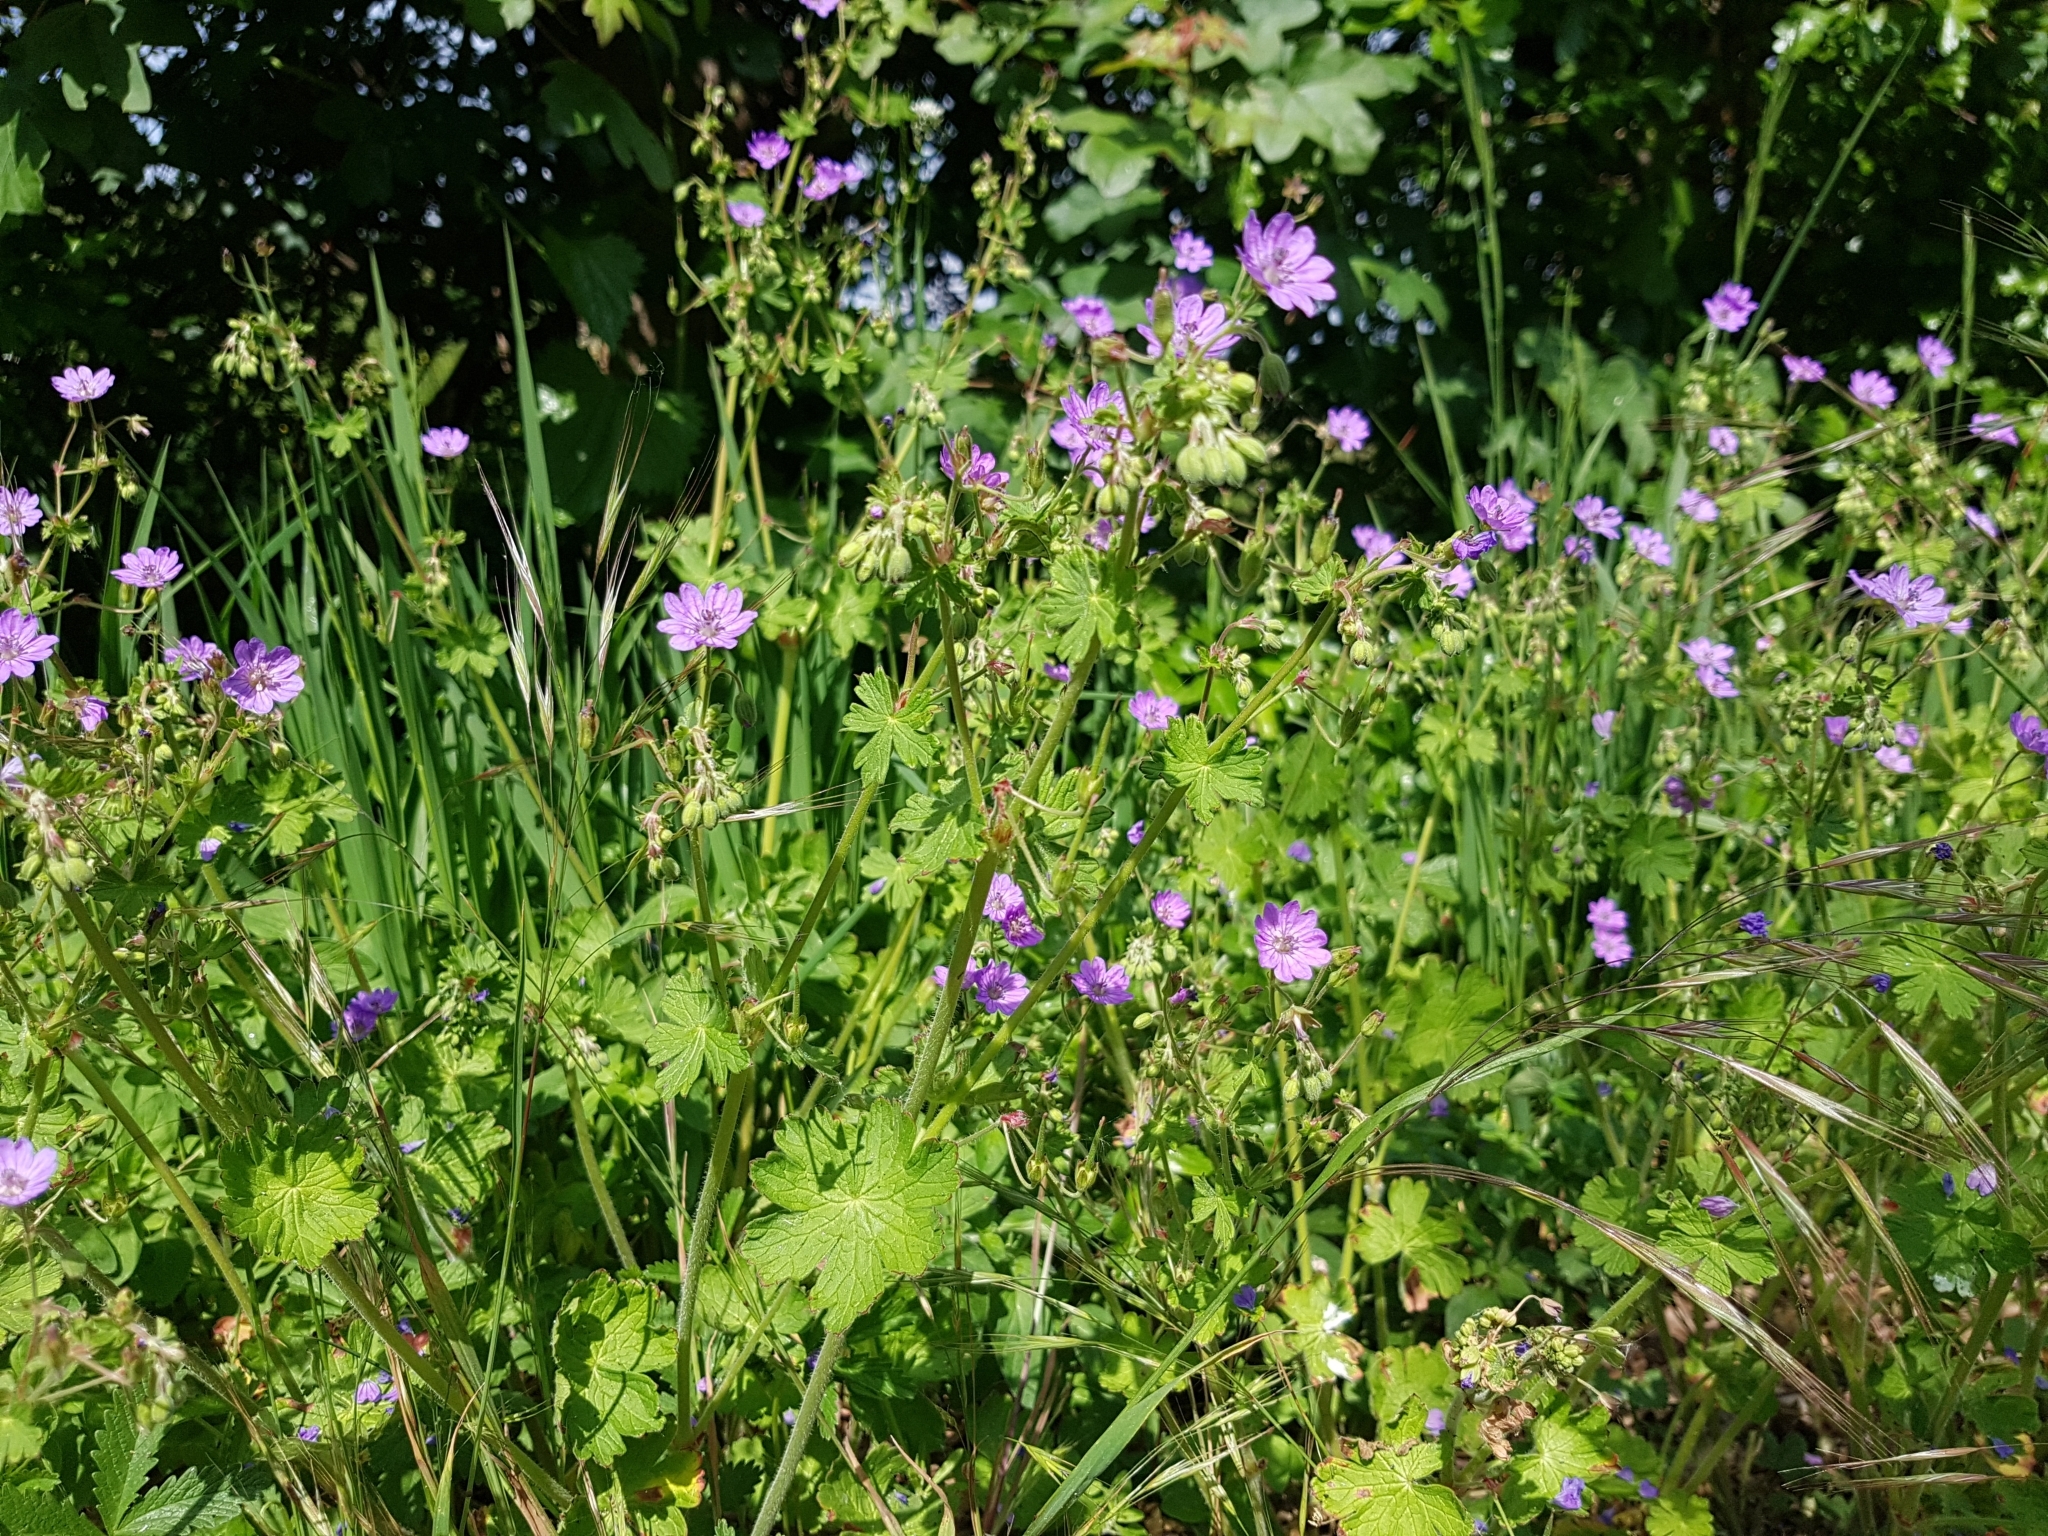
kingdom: Plantae
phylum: Tracheophyta
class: Magnoliopsida
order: Geraniales
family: Geraniaceae
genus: Geranium
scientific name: Geranium molle
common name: Dove's-foot crane's-bill
